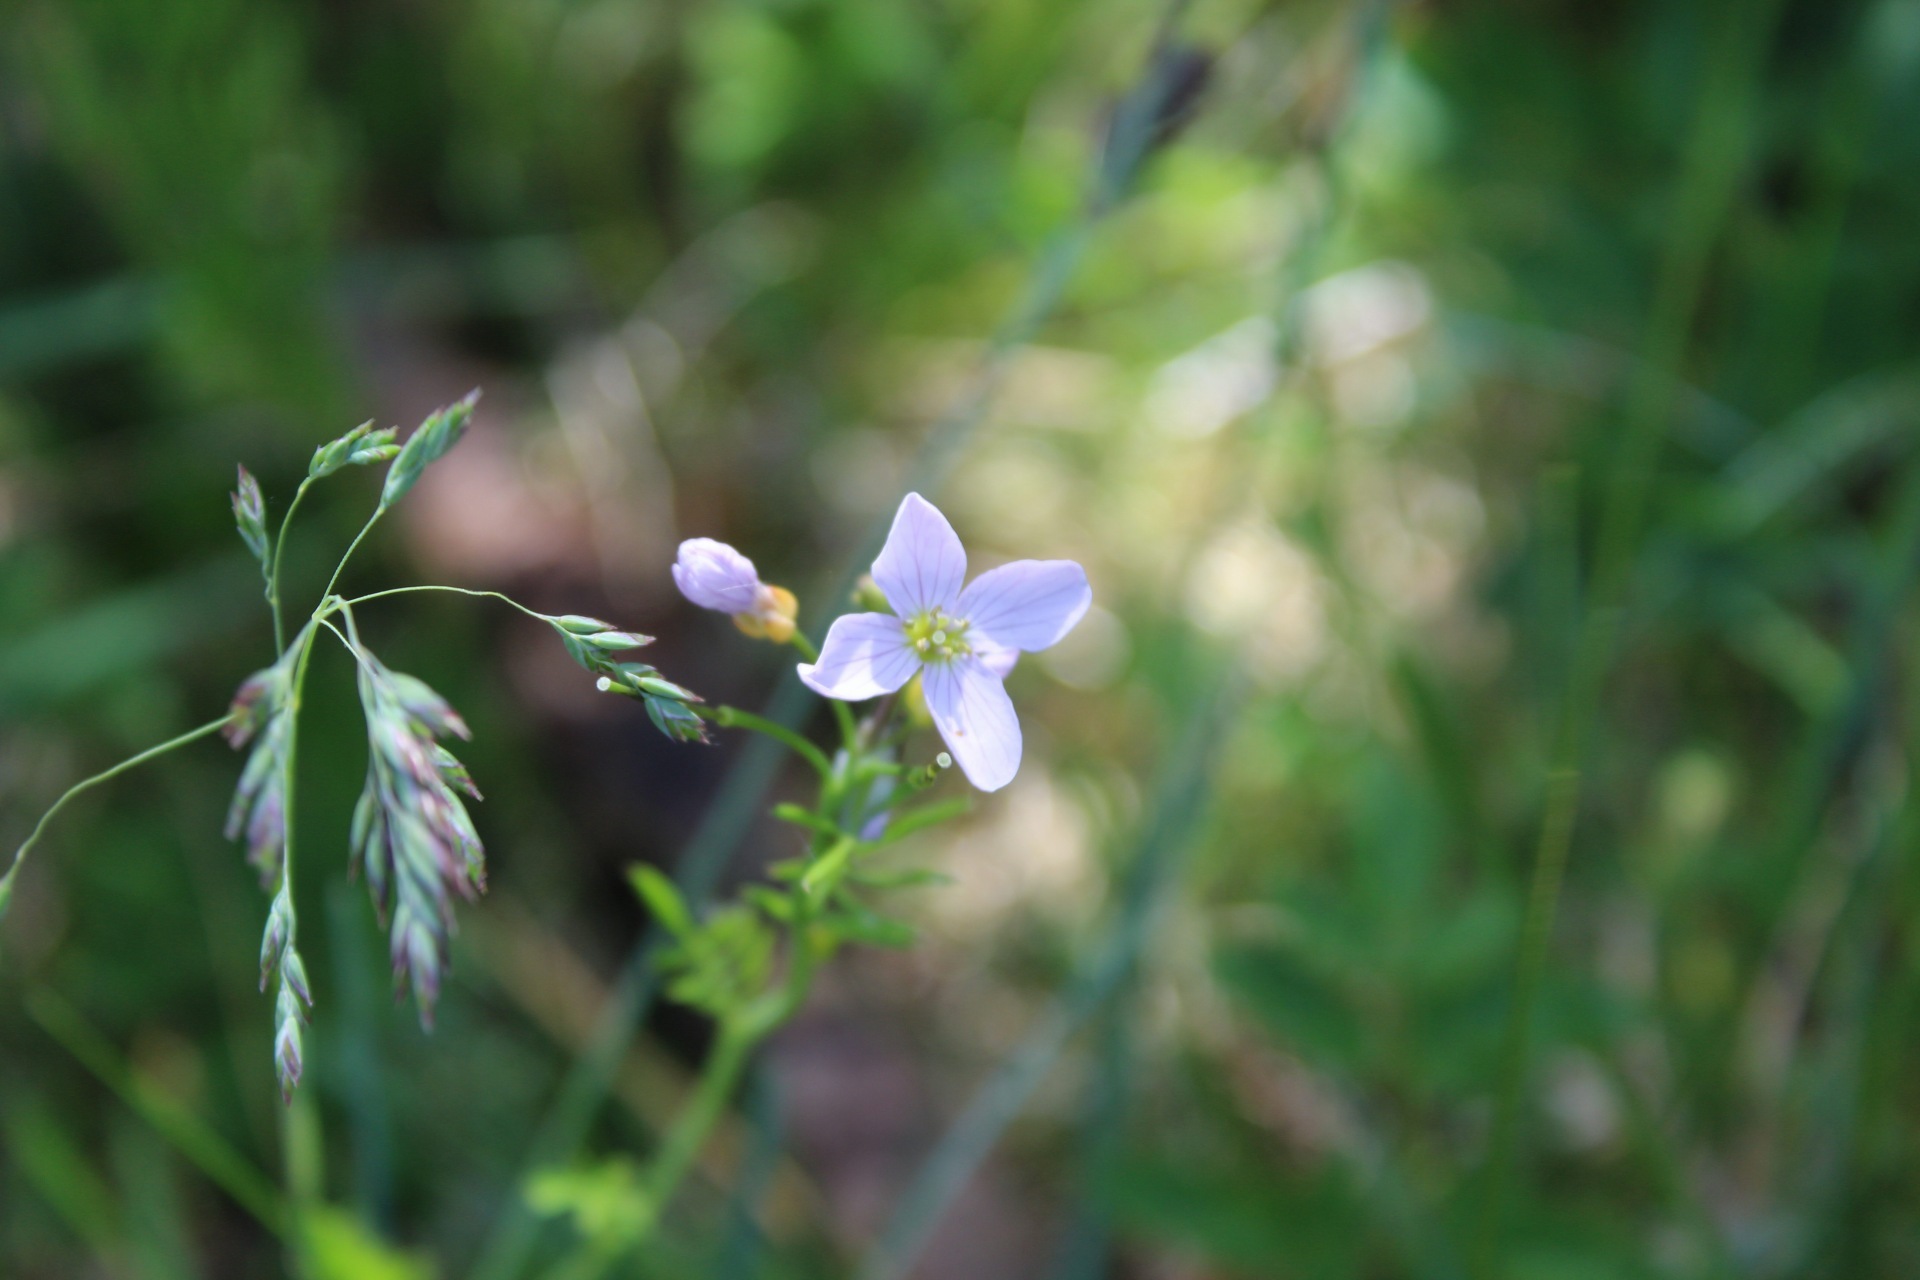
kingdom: Plantae
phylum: Tracheophyta
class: Magnoliopsida
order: Brassicales
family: Brassicaceae
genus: Cardamine
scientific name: Cardamine pratensis
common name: Cuckoo flower
